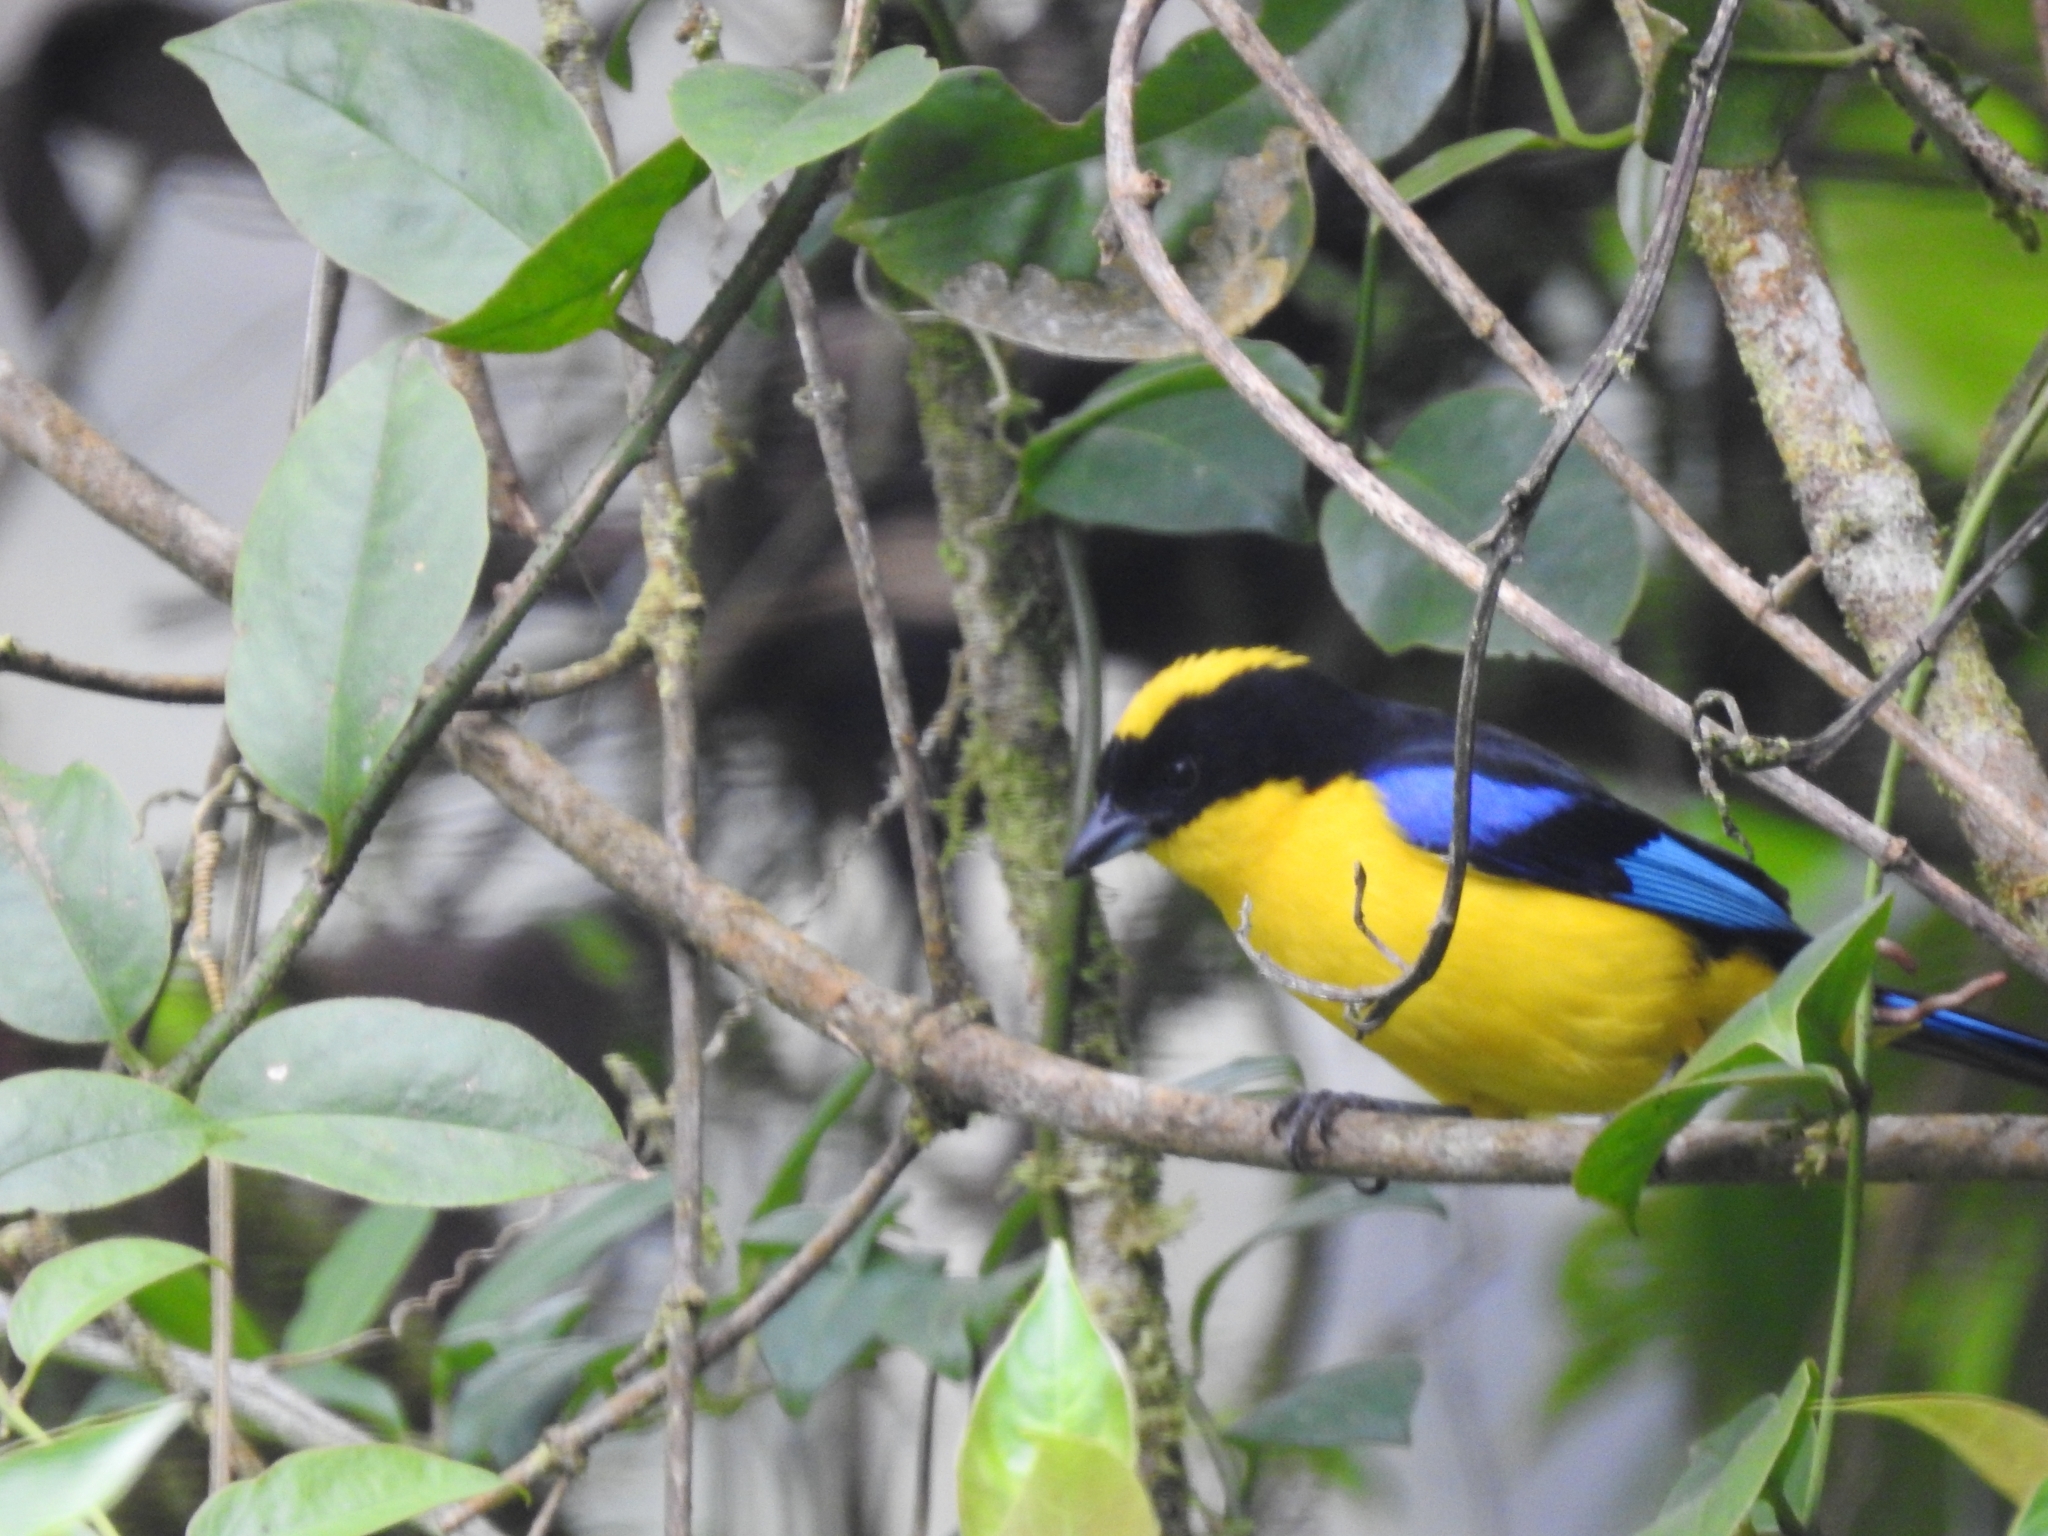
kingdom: Animalia
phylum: Chordata
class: Aves
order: Passeriformes
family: Thraupidae
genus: Anisognathus
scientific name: Anisognathus somptuosus
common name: Blue-winged mountain-tanager
